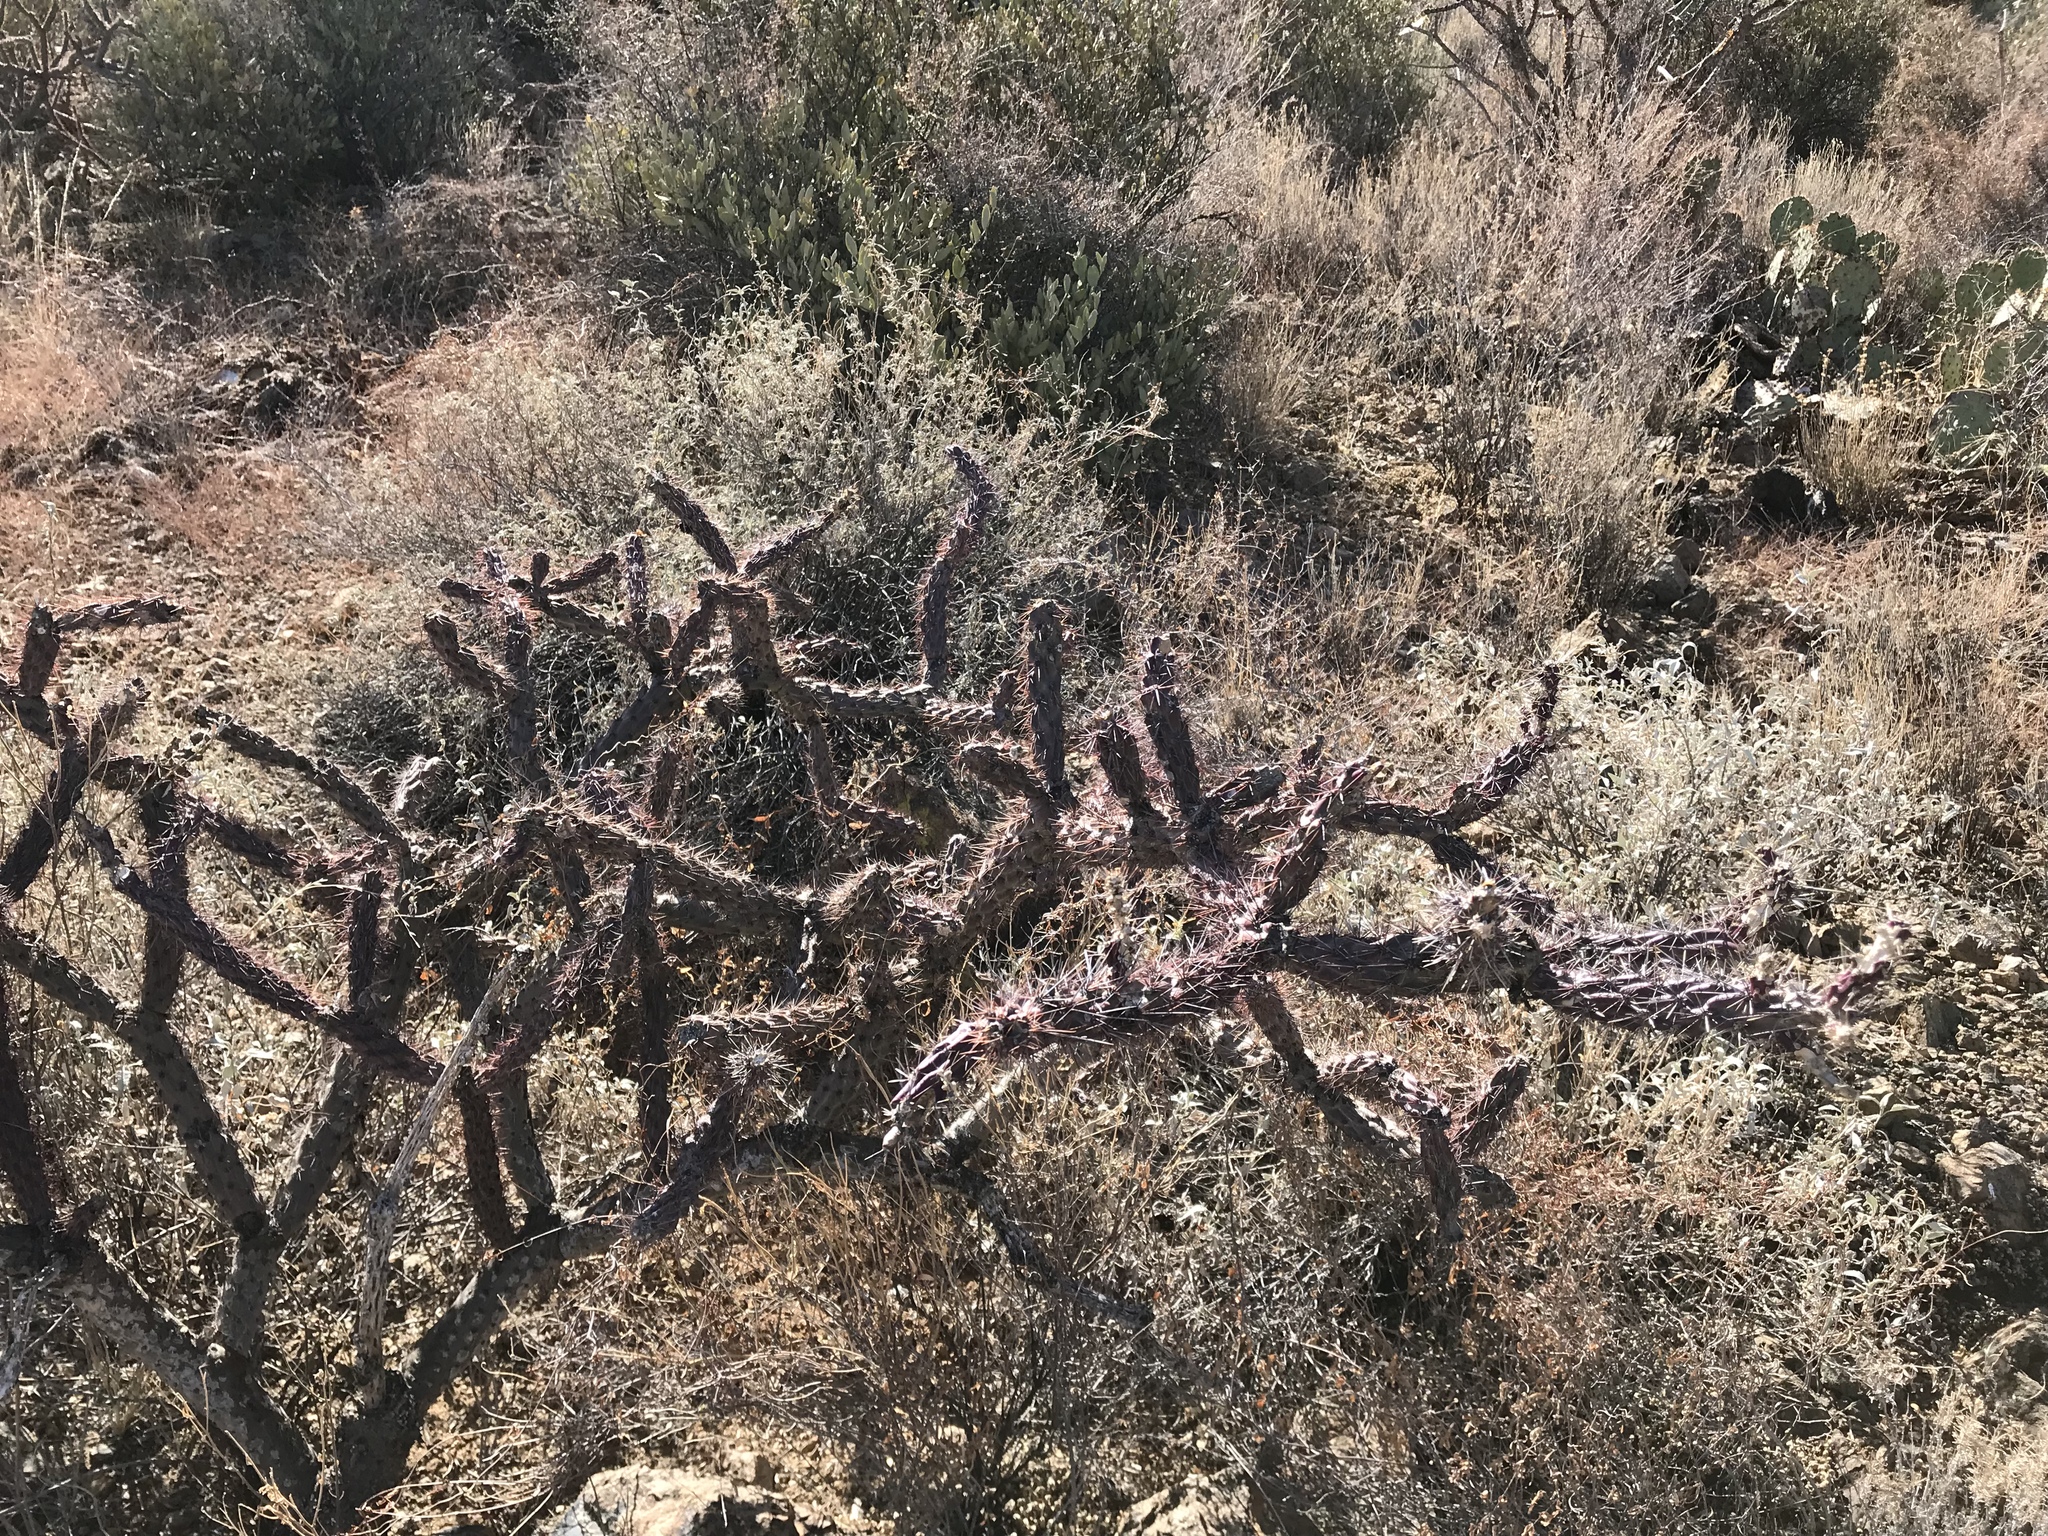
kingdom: Plantae
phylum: Tracheophyta
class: Magnoliopsida
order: Caryophyllales
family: Cactaceae
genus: Cylindropuntia
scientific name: Cylindropuntia acanthocarpa
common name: Buckhorn cholla
